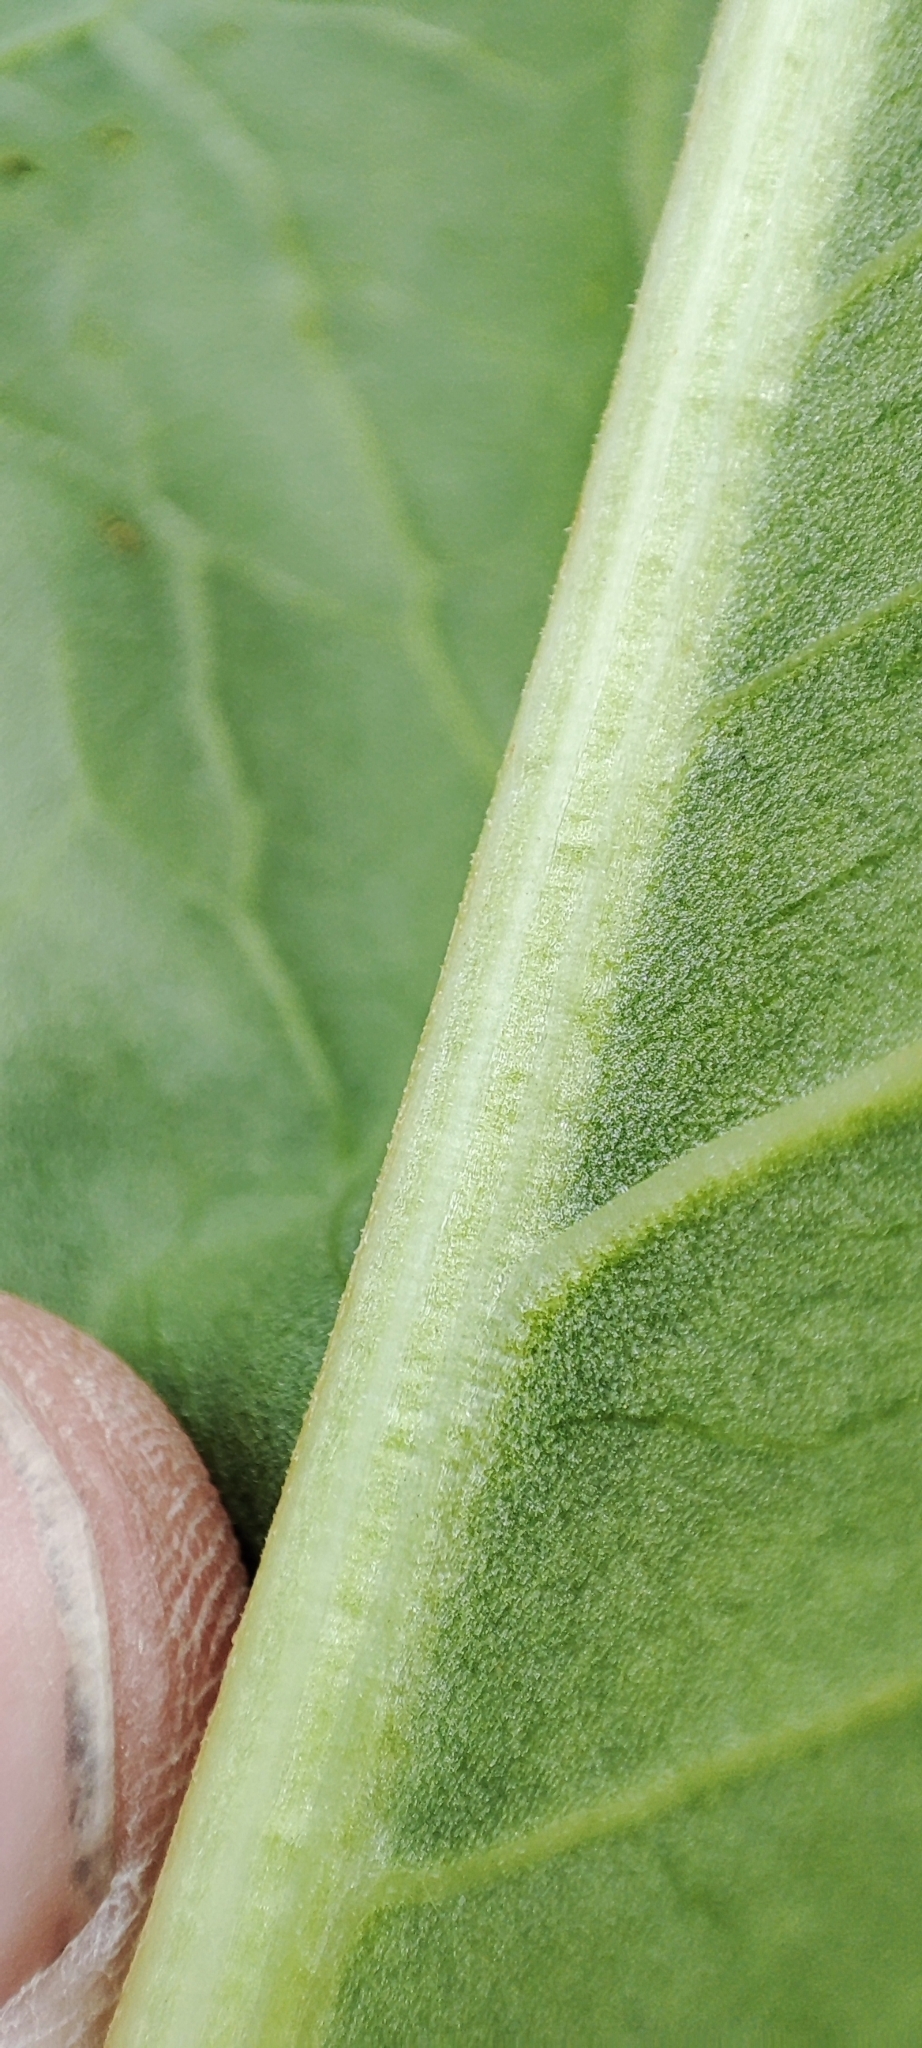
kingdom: Plantae
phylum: Tracheophyta
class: Magnoliopsida
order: Caryophyllales
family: Polygonaceae
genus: Rumex
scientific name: Rumex aquaticus
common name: Scottish dock
